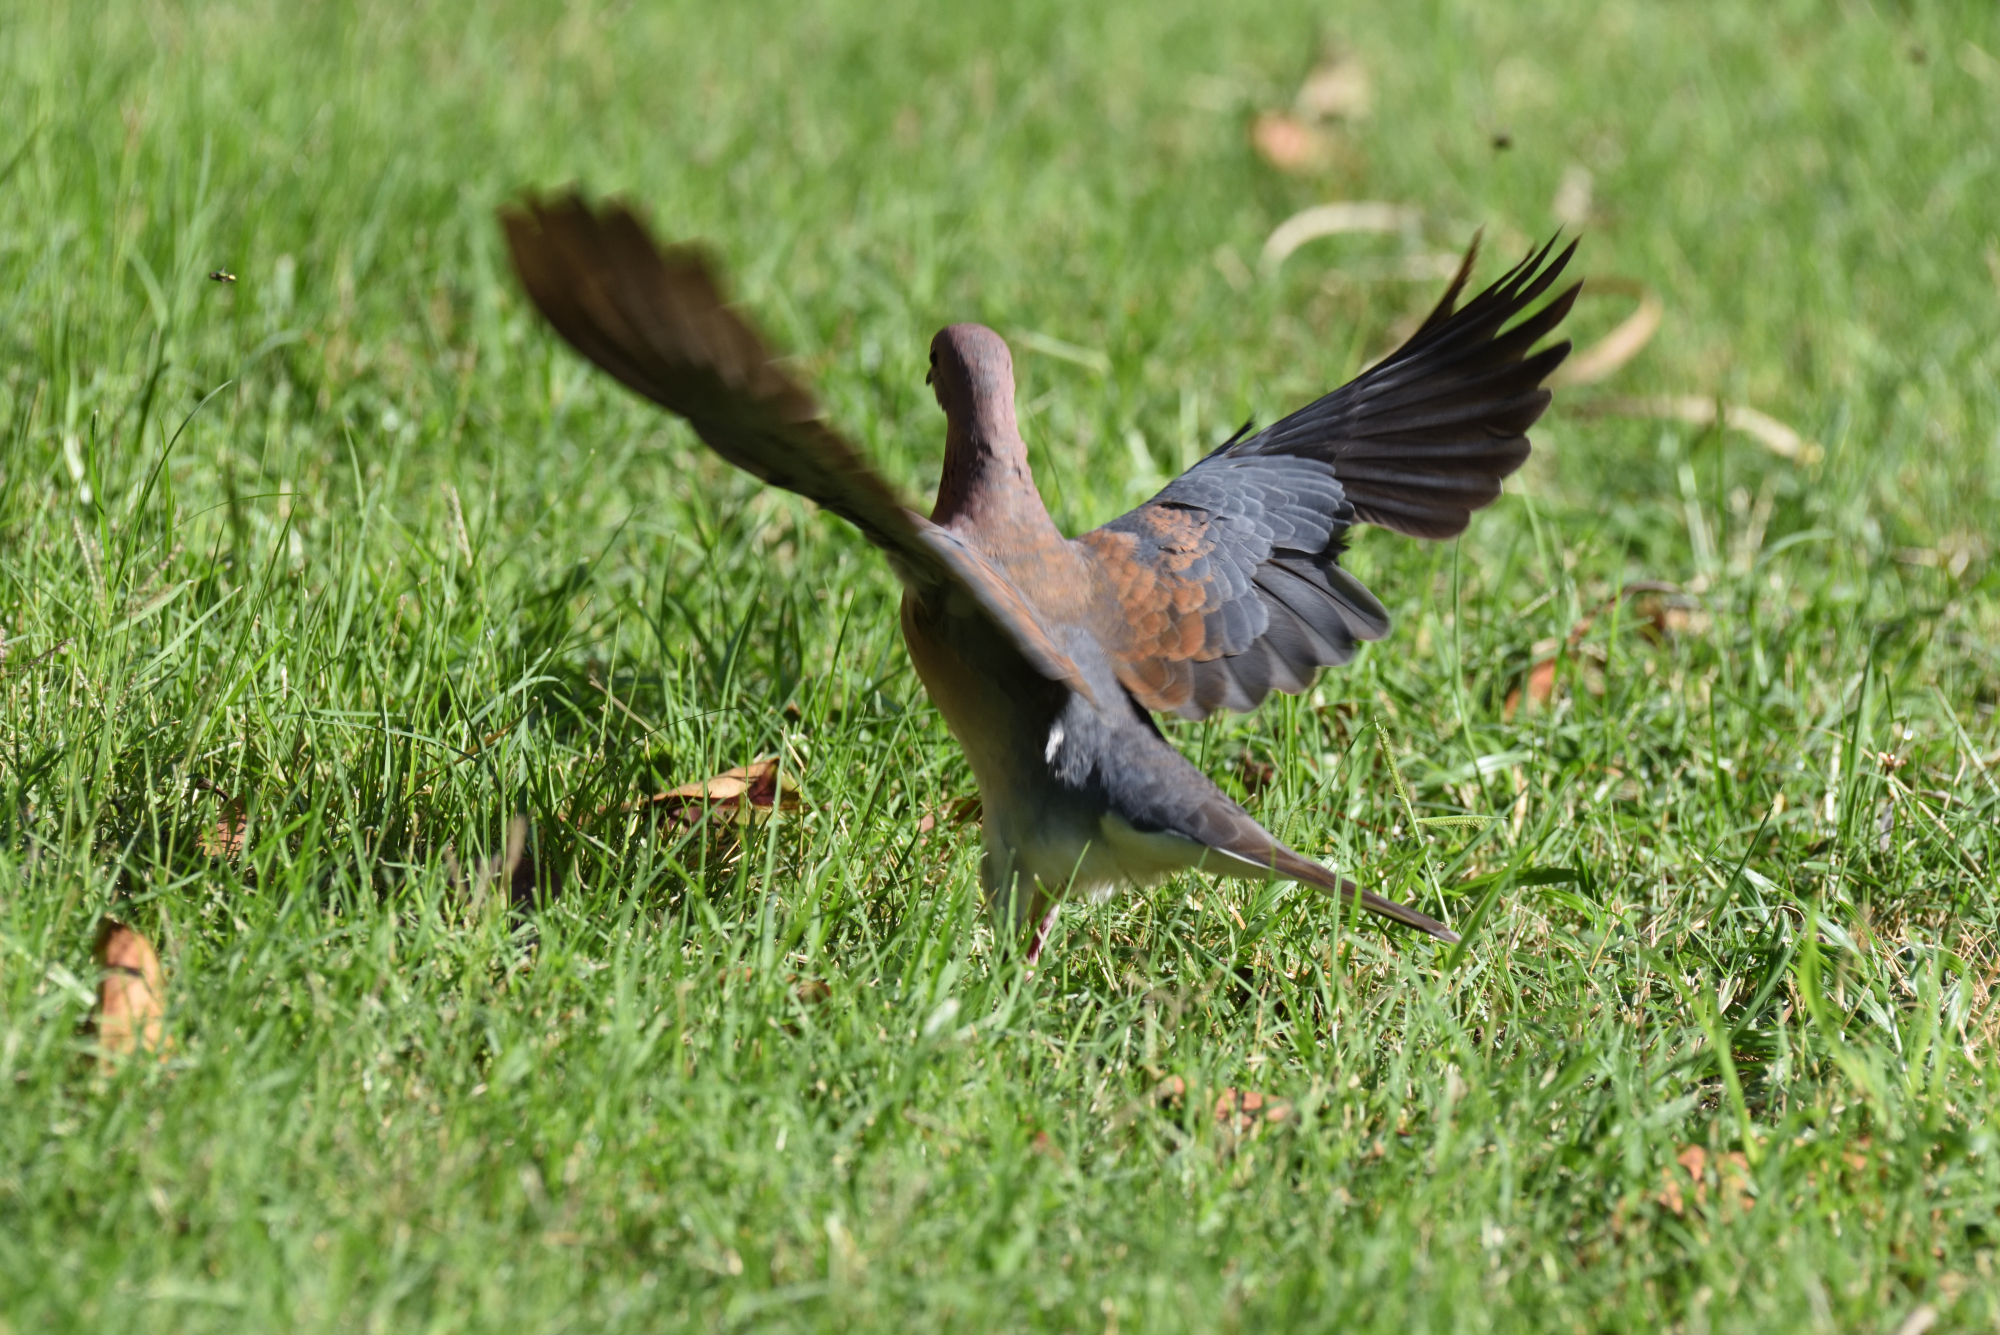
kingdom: Animalia
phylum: Chordata
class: Aves
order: Columbiformes
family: Columbidae
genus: Spilopelia
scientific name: Spilopelia senegalensis
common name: Laughing dove
